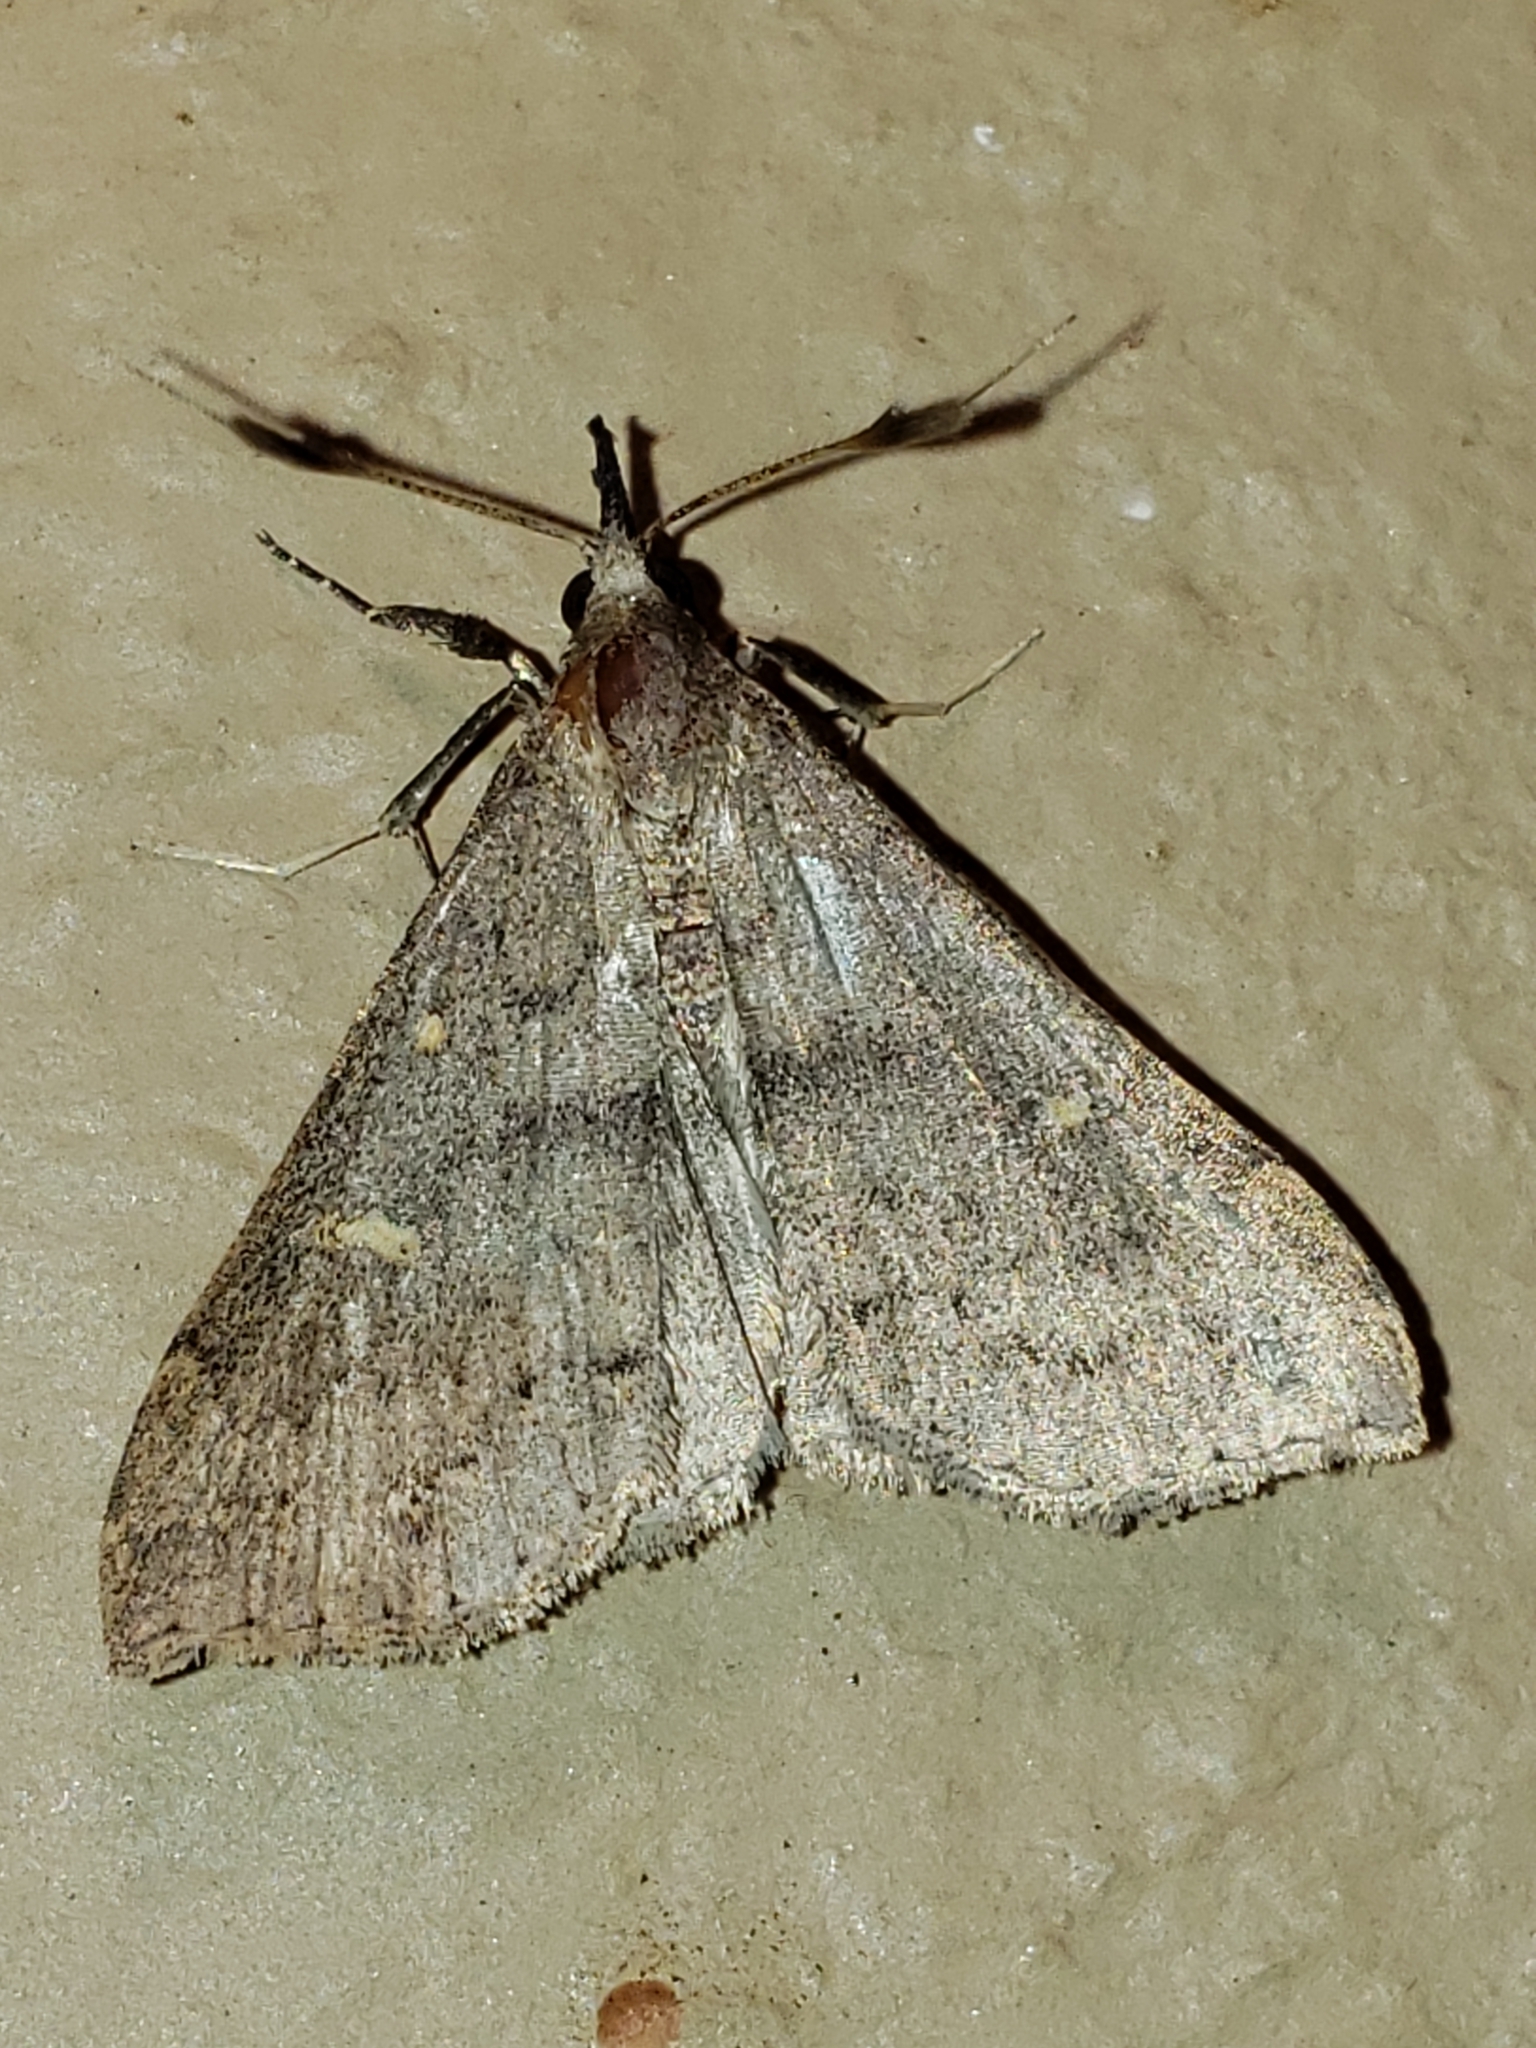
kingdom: Animalia
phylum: Arthropoda
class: Insecta
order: Lepidoptera
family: Erebidae
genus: Renia
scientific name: Renia adspergillus
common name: Speckled renia moth
